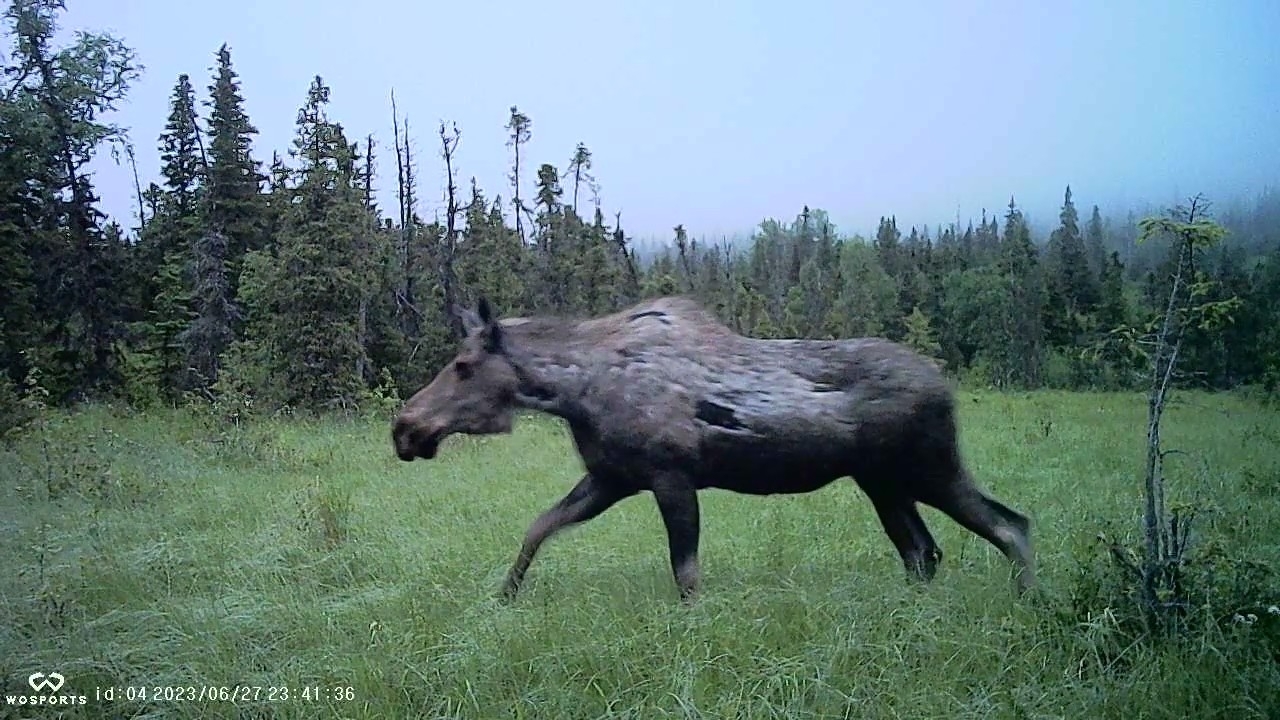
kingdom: Animalia
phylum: Chordata
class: Mammalia
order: Artiodactyla
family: Cervidae
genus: Alces
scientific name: Alces alces
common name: Moose
